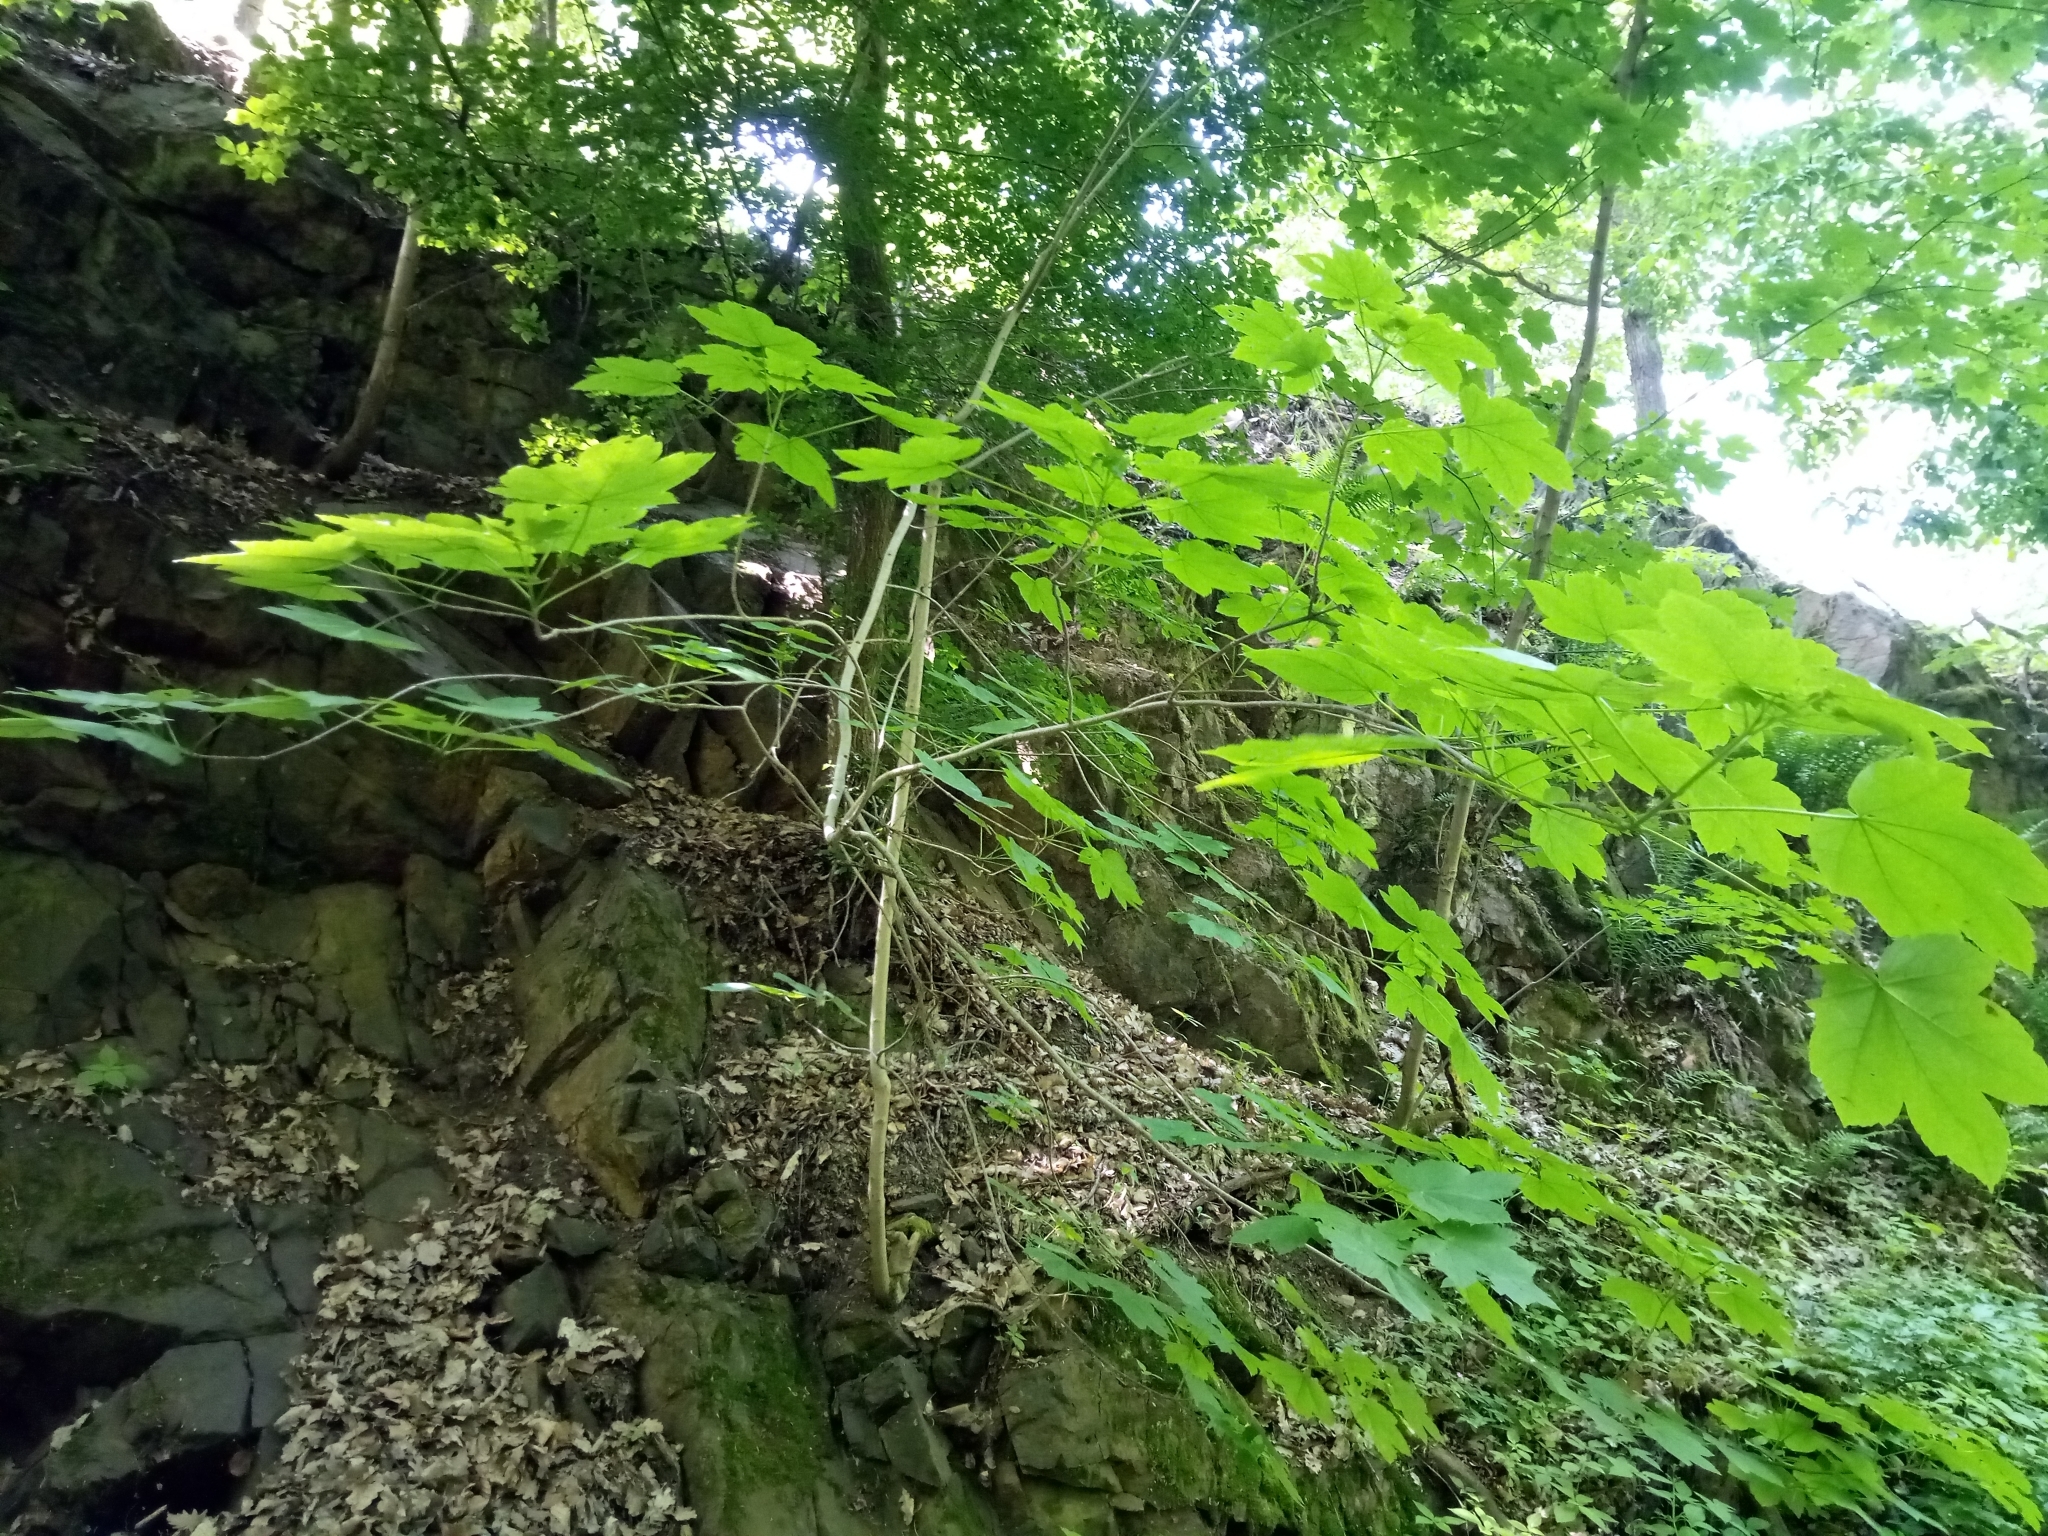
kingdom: Plantae
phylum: Tracheophyta
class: Magnoliopsida
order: Sapindales
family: Sapindaceae
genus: Acer
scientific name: Acer pseudoplatanus
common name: Sycamore
